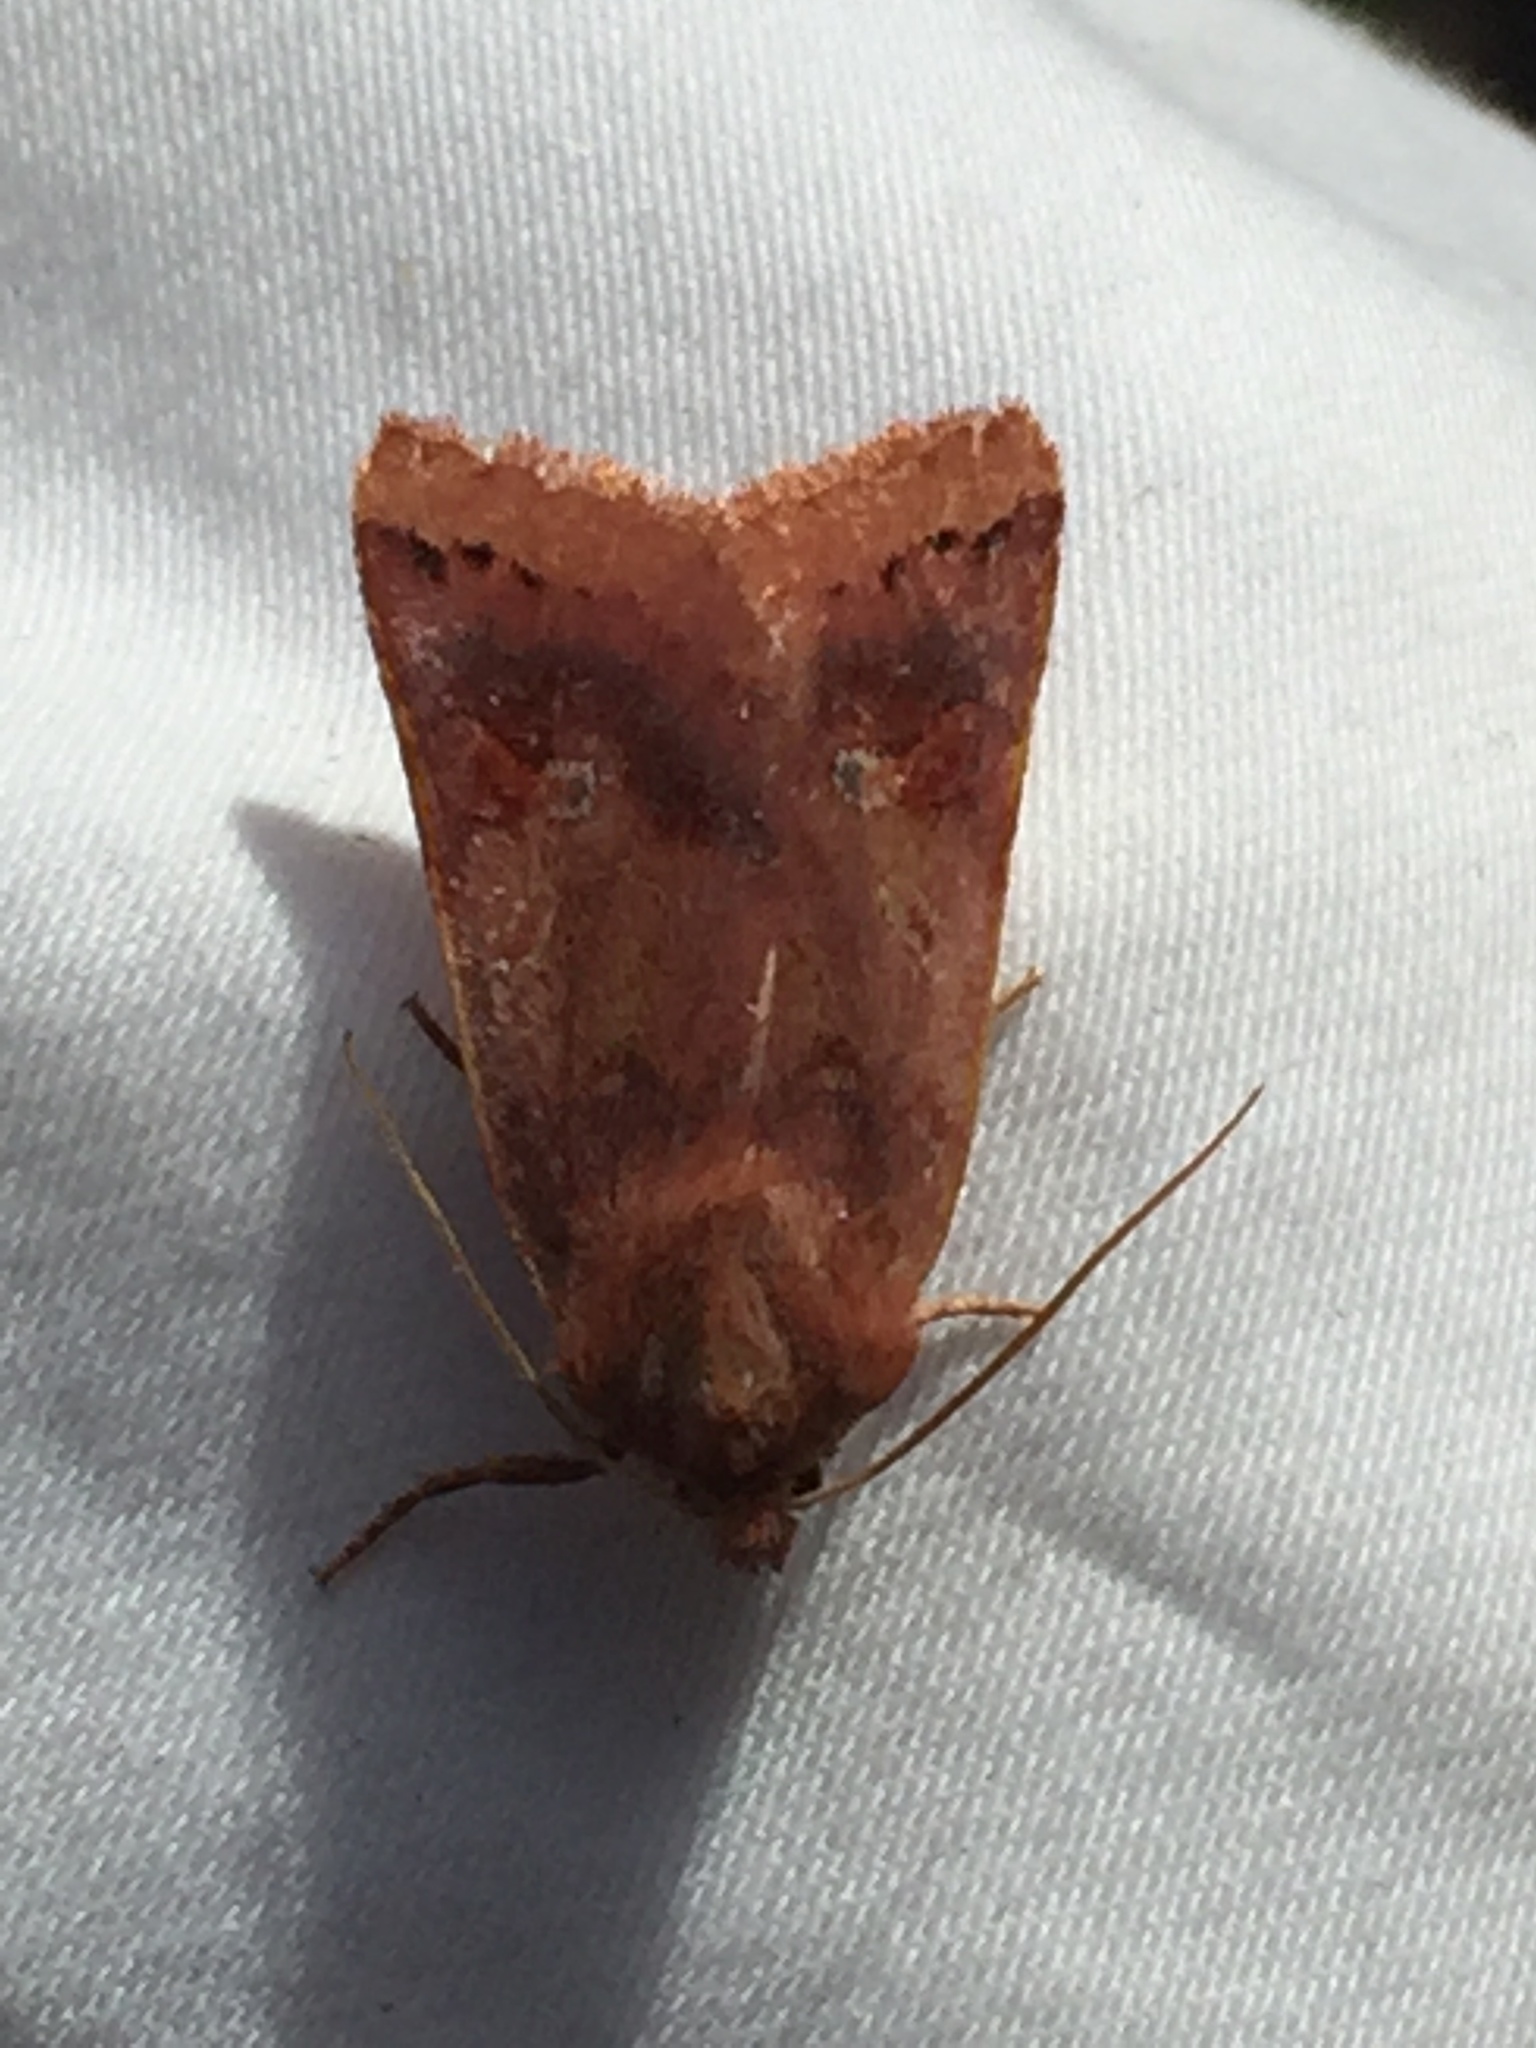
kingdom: Animalia
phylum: Arthropoda
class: Insecta
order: Lepidoptera
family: Noctuidae
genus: Agrochola
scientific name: Agrochola pulchella
